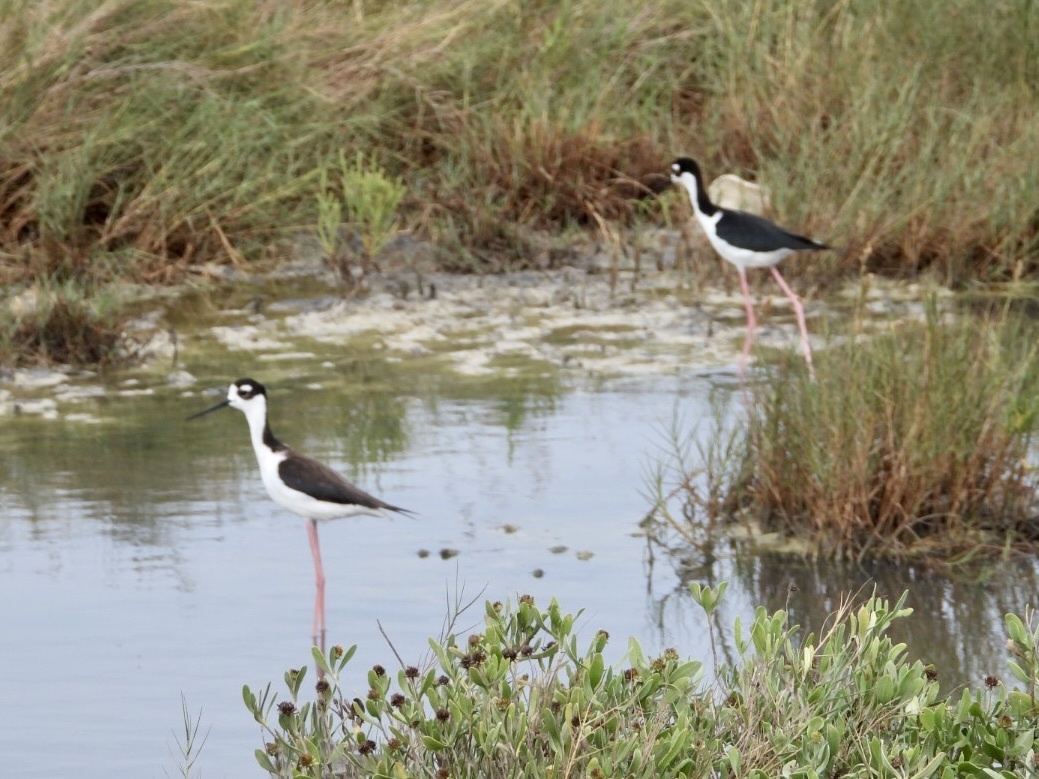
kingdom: Animalia
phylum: Chordata
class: Aves
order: Charadriiformes
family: Recurvirostridae
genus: Himantopus
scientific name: Himantopus mexicanus
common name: Black-necked stilt
